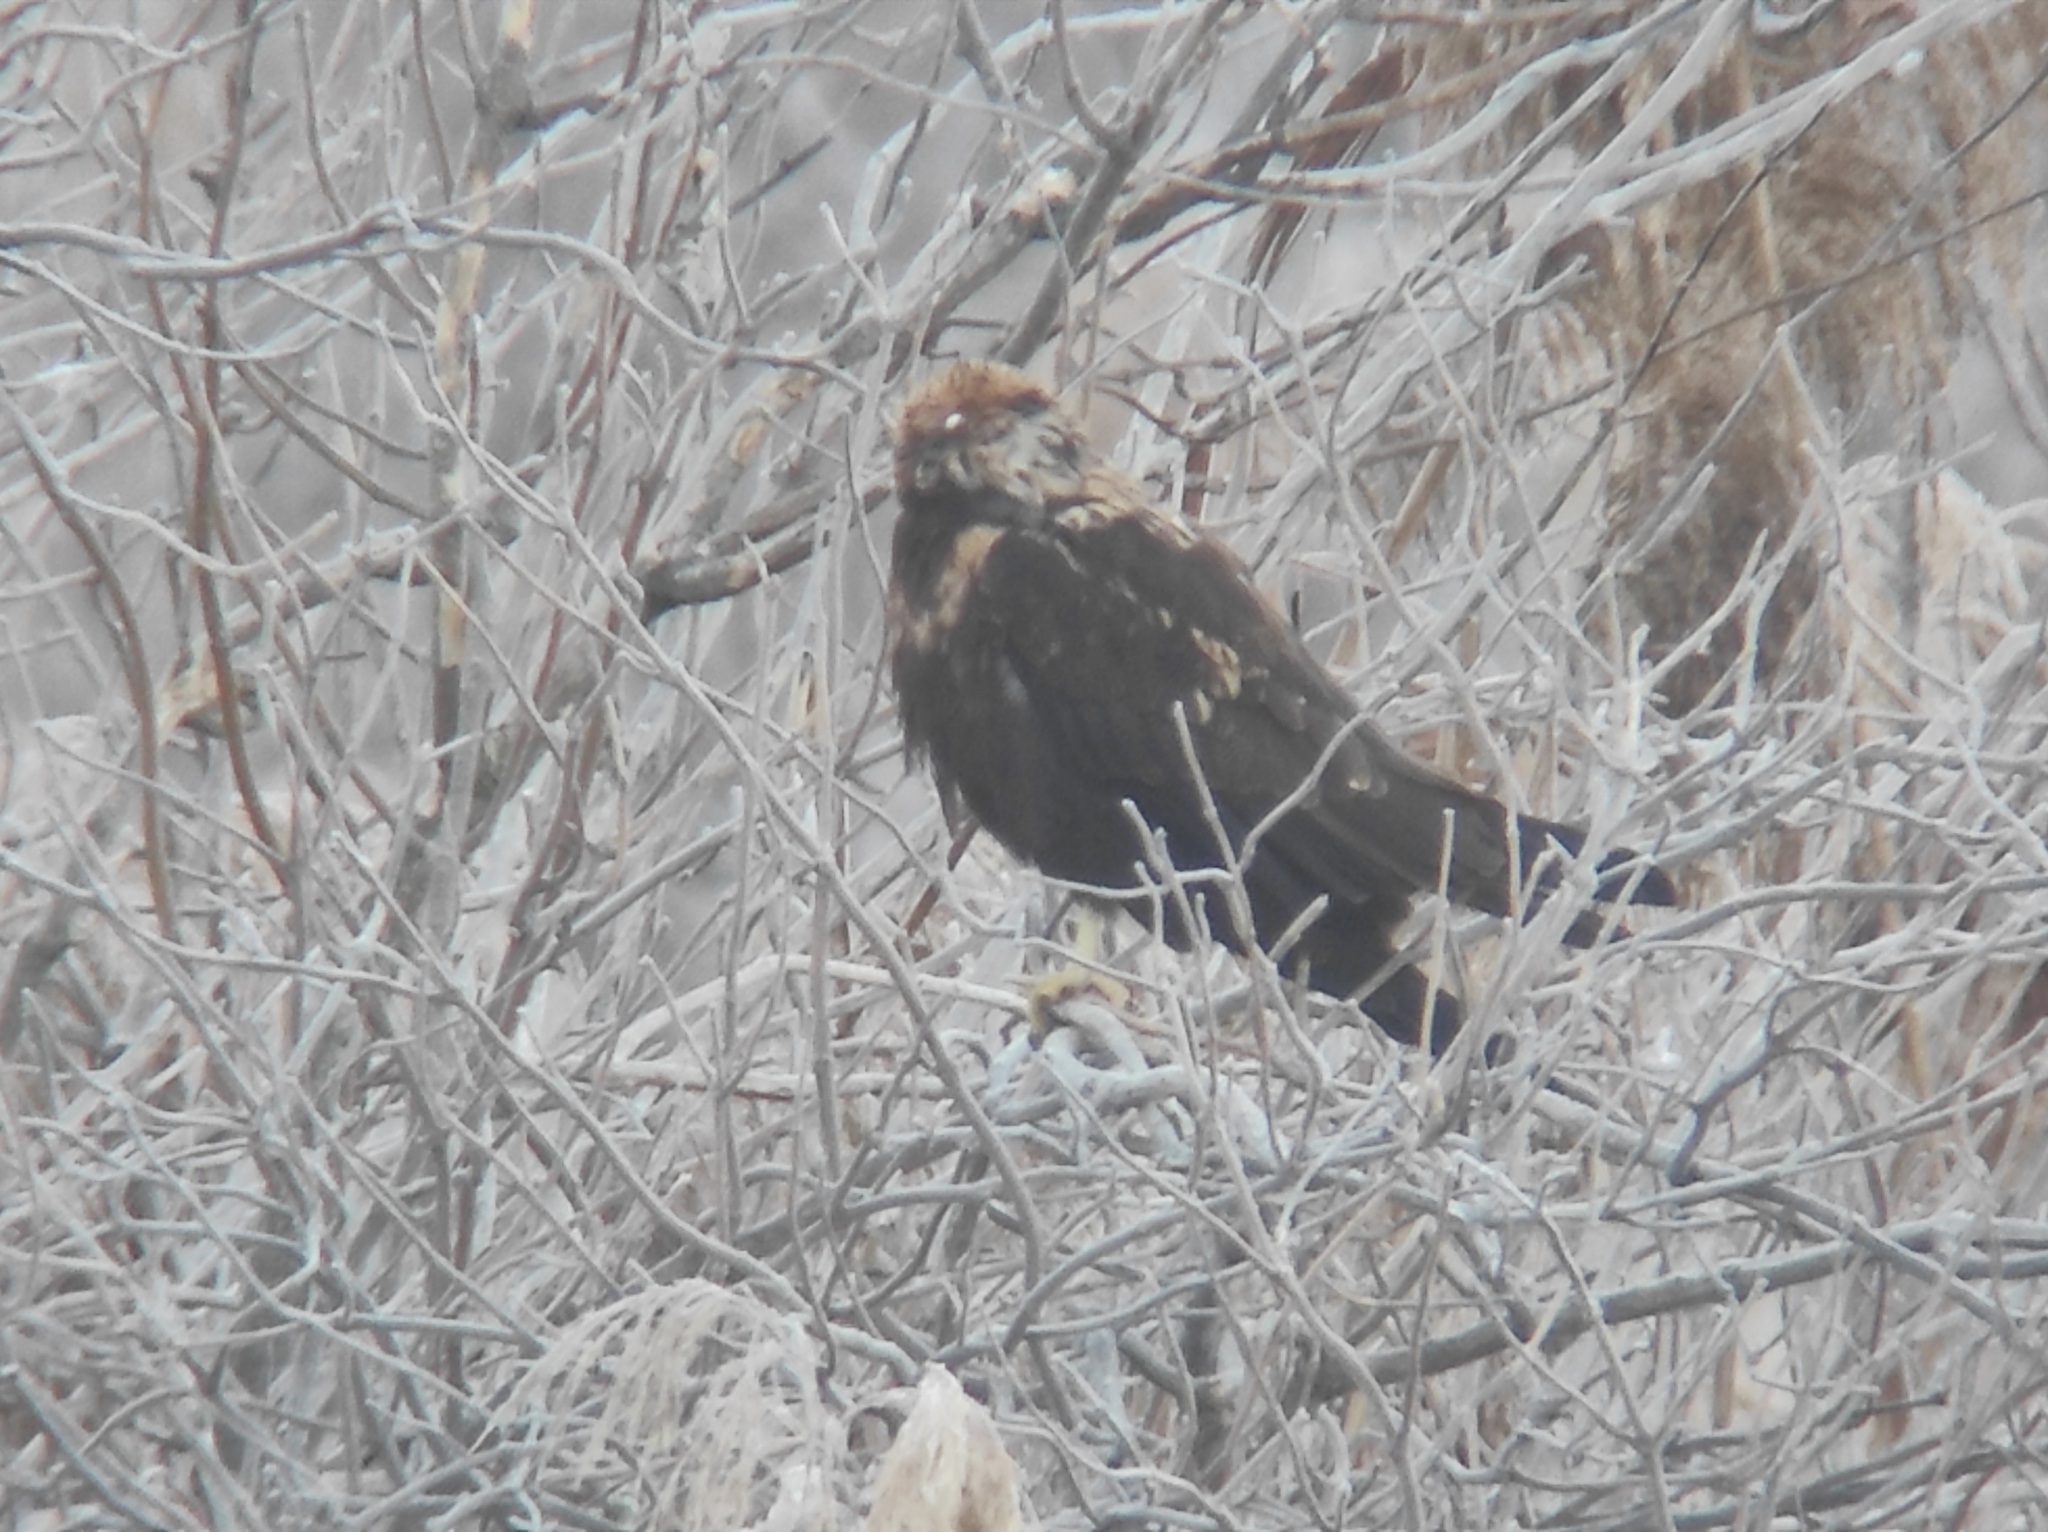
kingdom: Animalia
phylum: Chordata
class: Aves
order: Accipitriformes
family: Accipitridae
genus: Circus
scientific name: Circus aeruginosus
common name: Western marsh harrier
